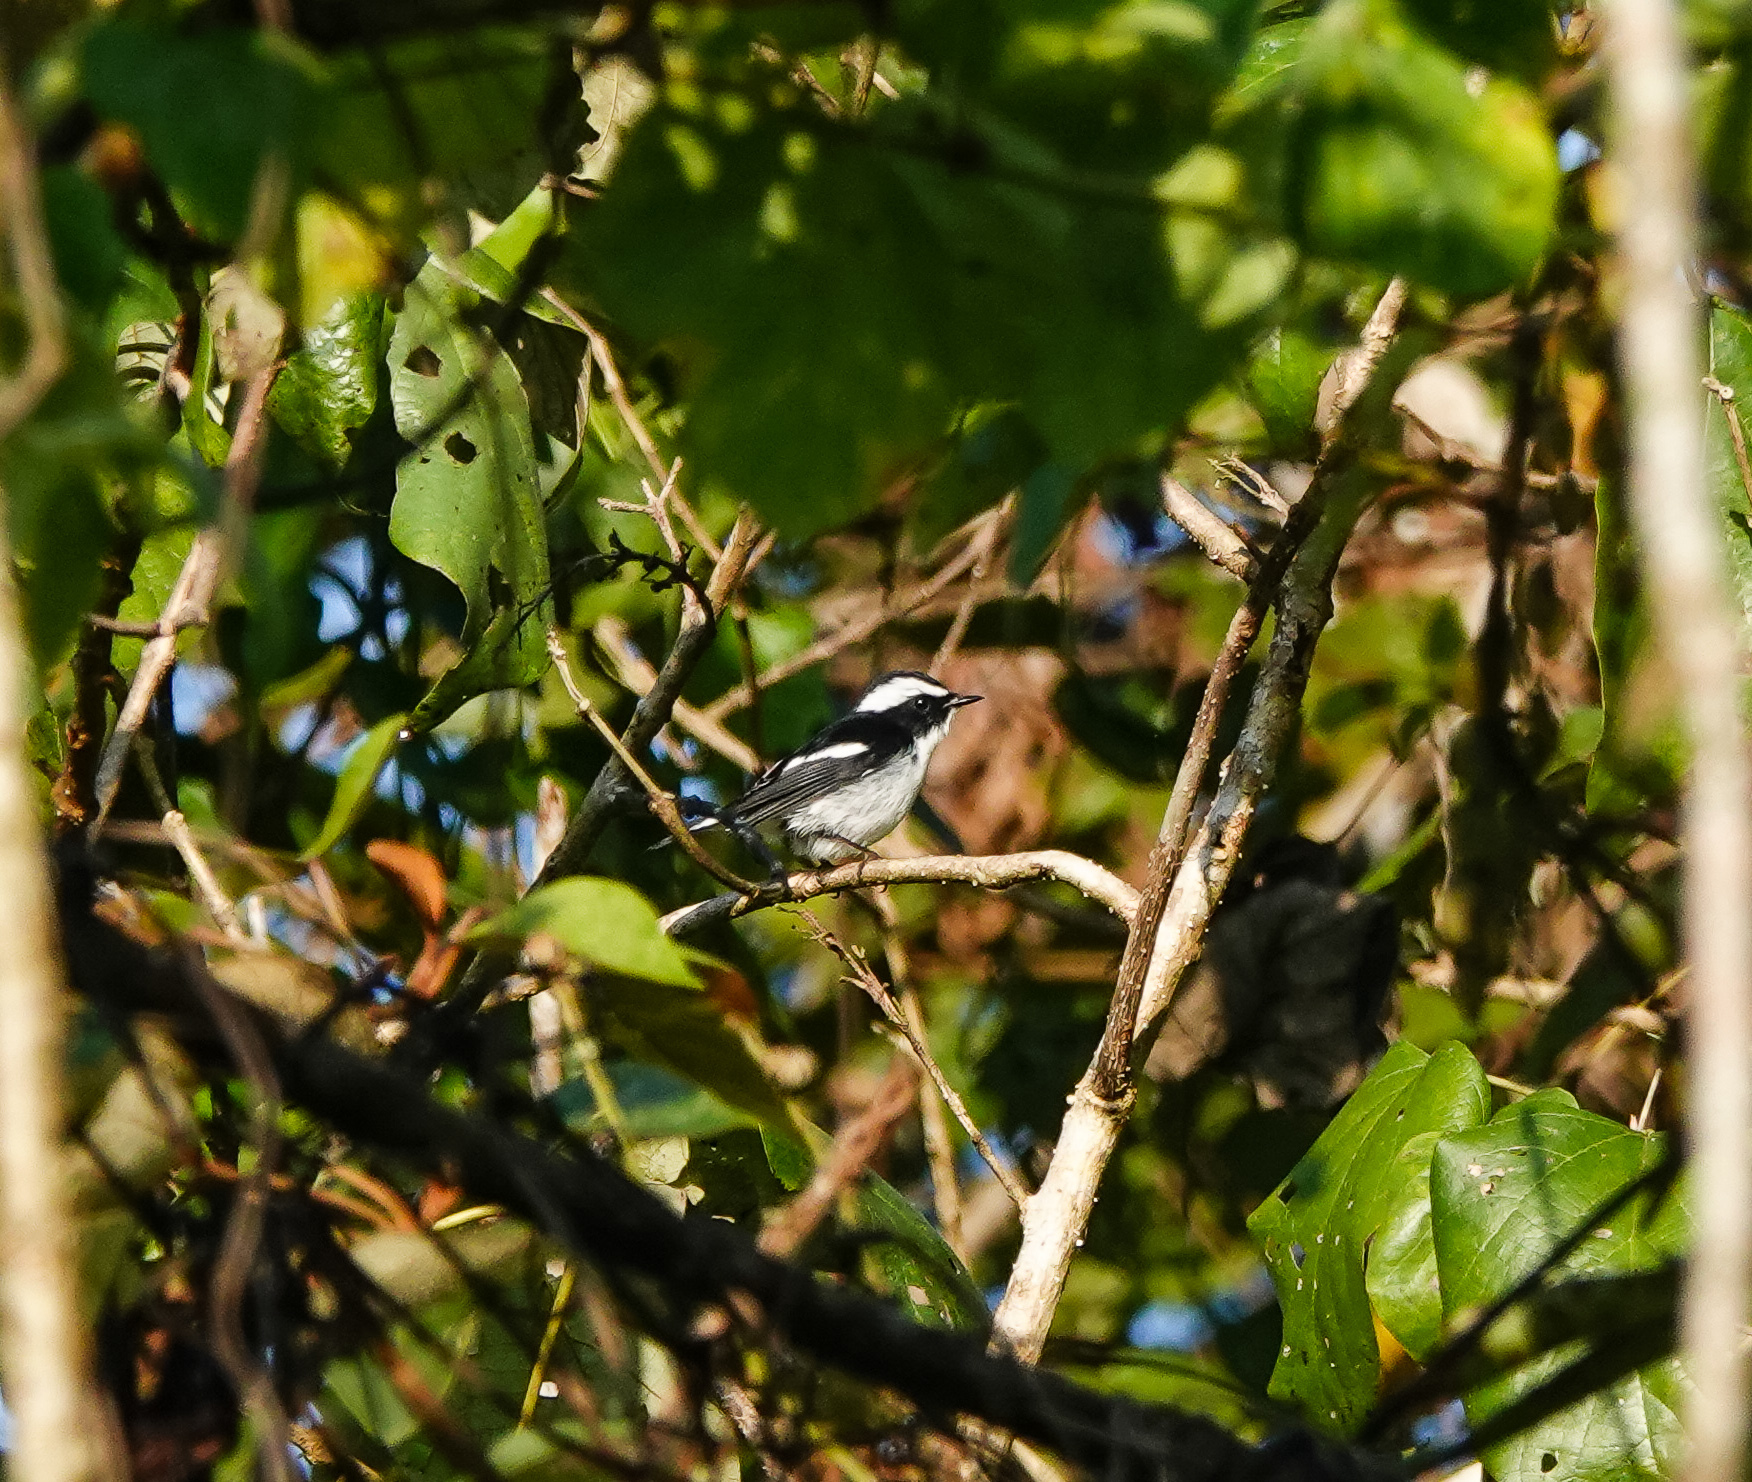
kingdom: Animalia
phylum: Chordata
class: Aves
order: Passeriformes
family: Muscicapidae
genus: Ficedula
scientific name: Ficedula westermanni
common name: Little pied flycatcher
